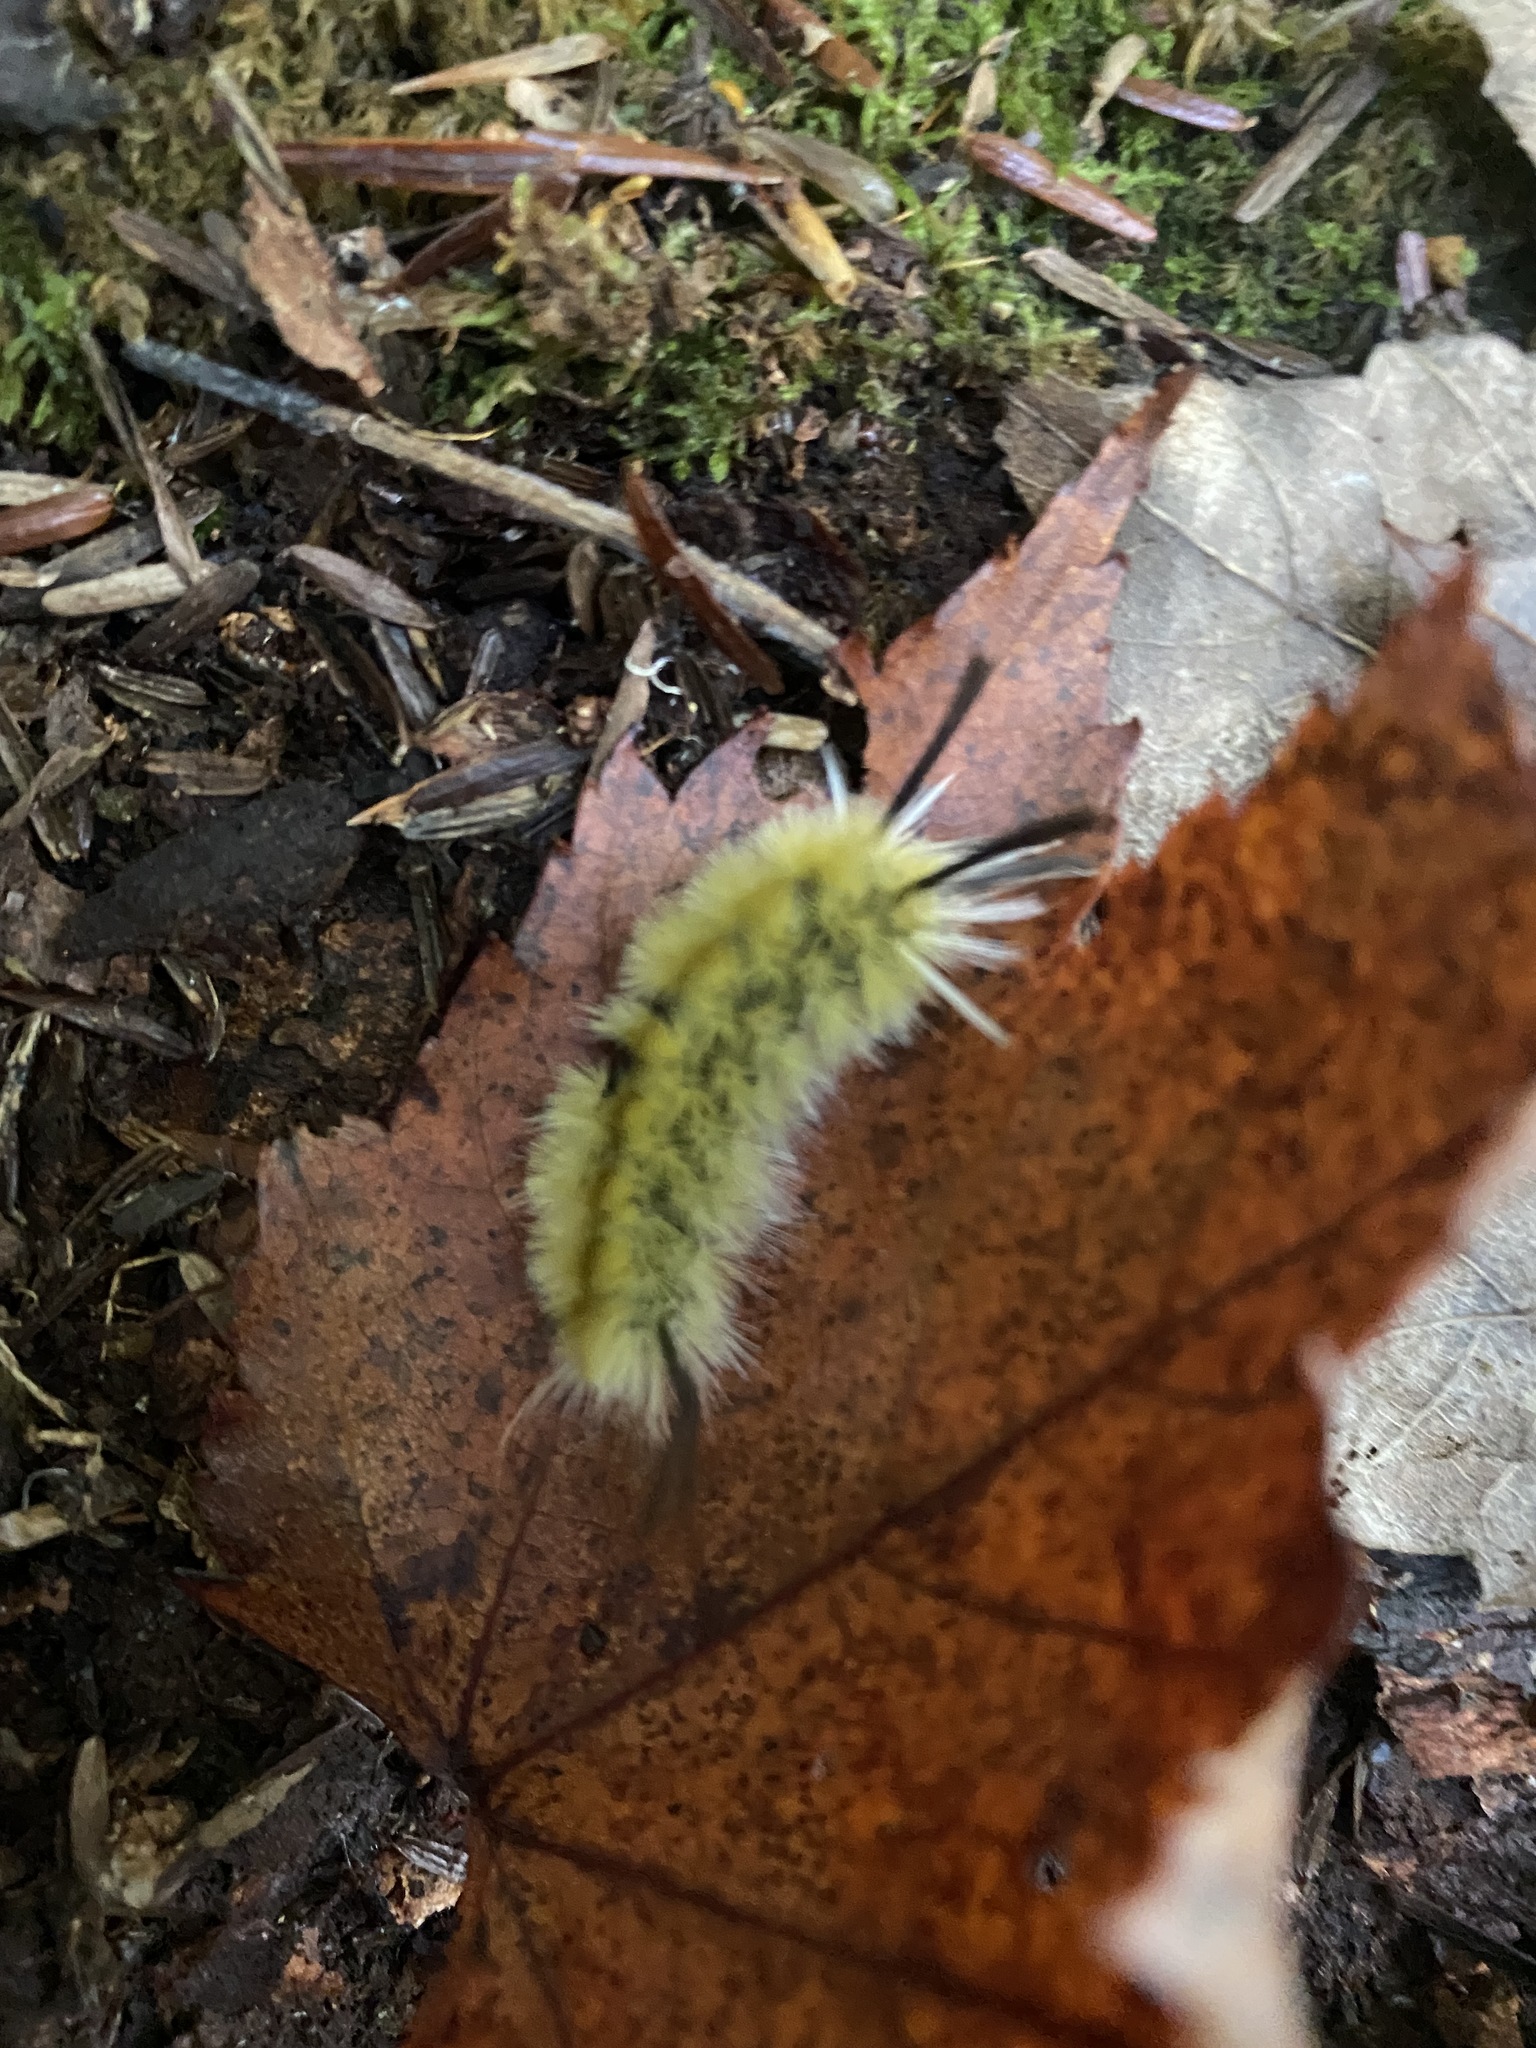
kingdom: Animalia
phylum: Arthropoda
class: Insecta
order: Lepidoptera
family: Erebidae
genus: Halysidota
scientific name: Halysidota tessellaris
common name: Banded tussock moth
